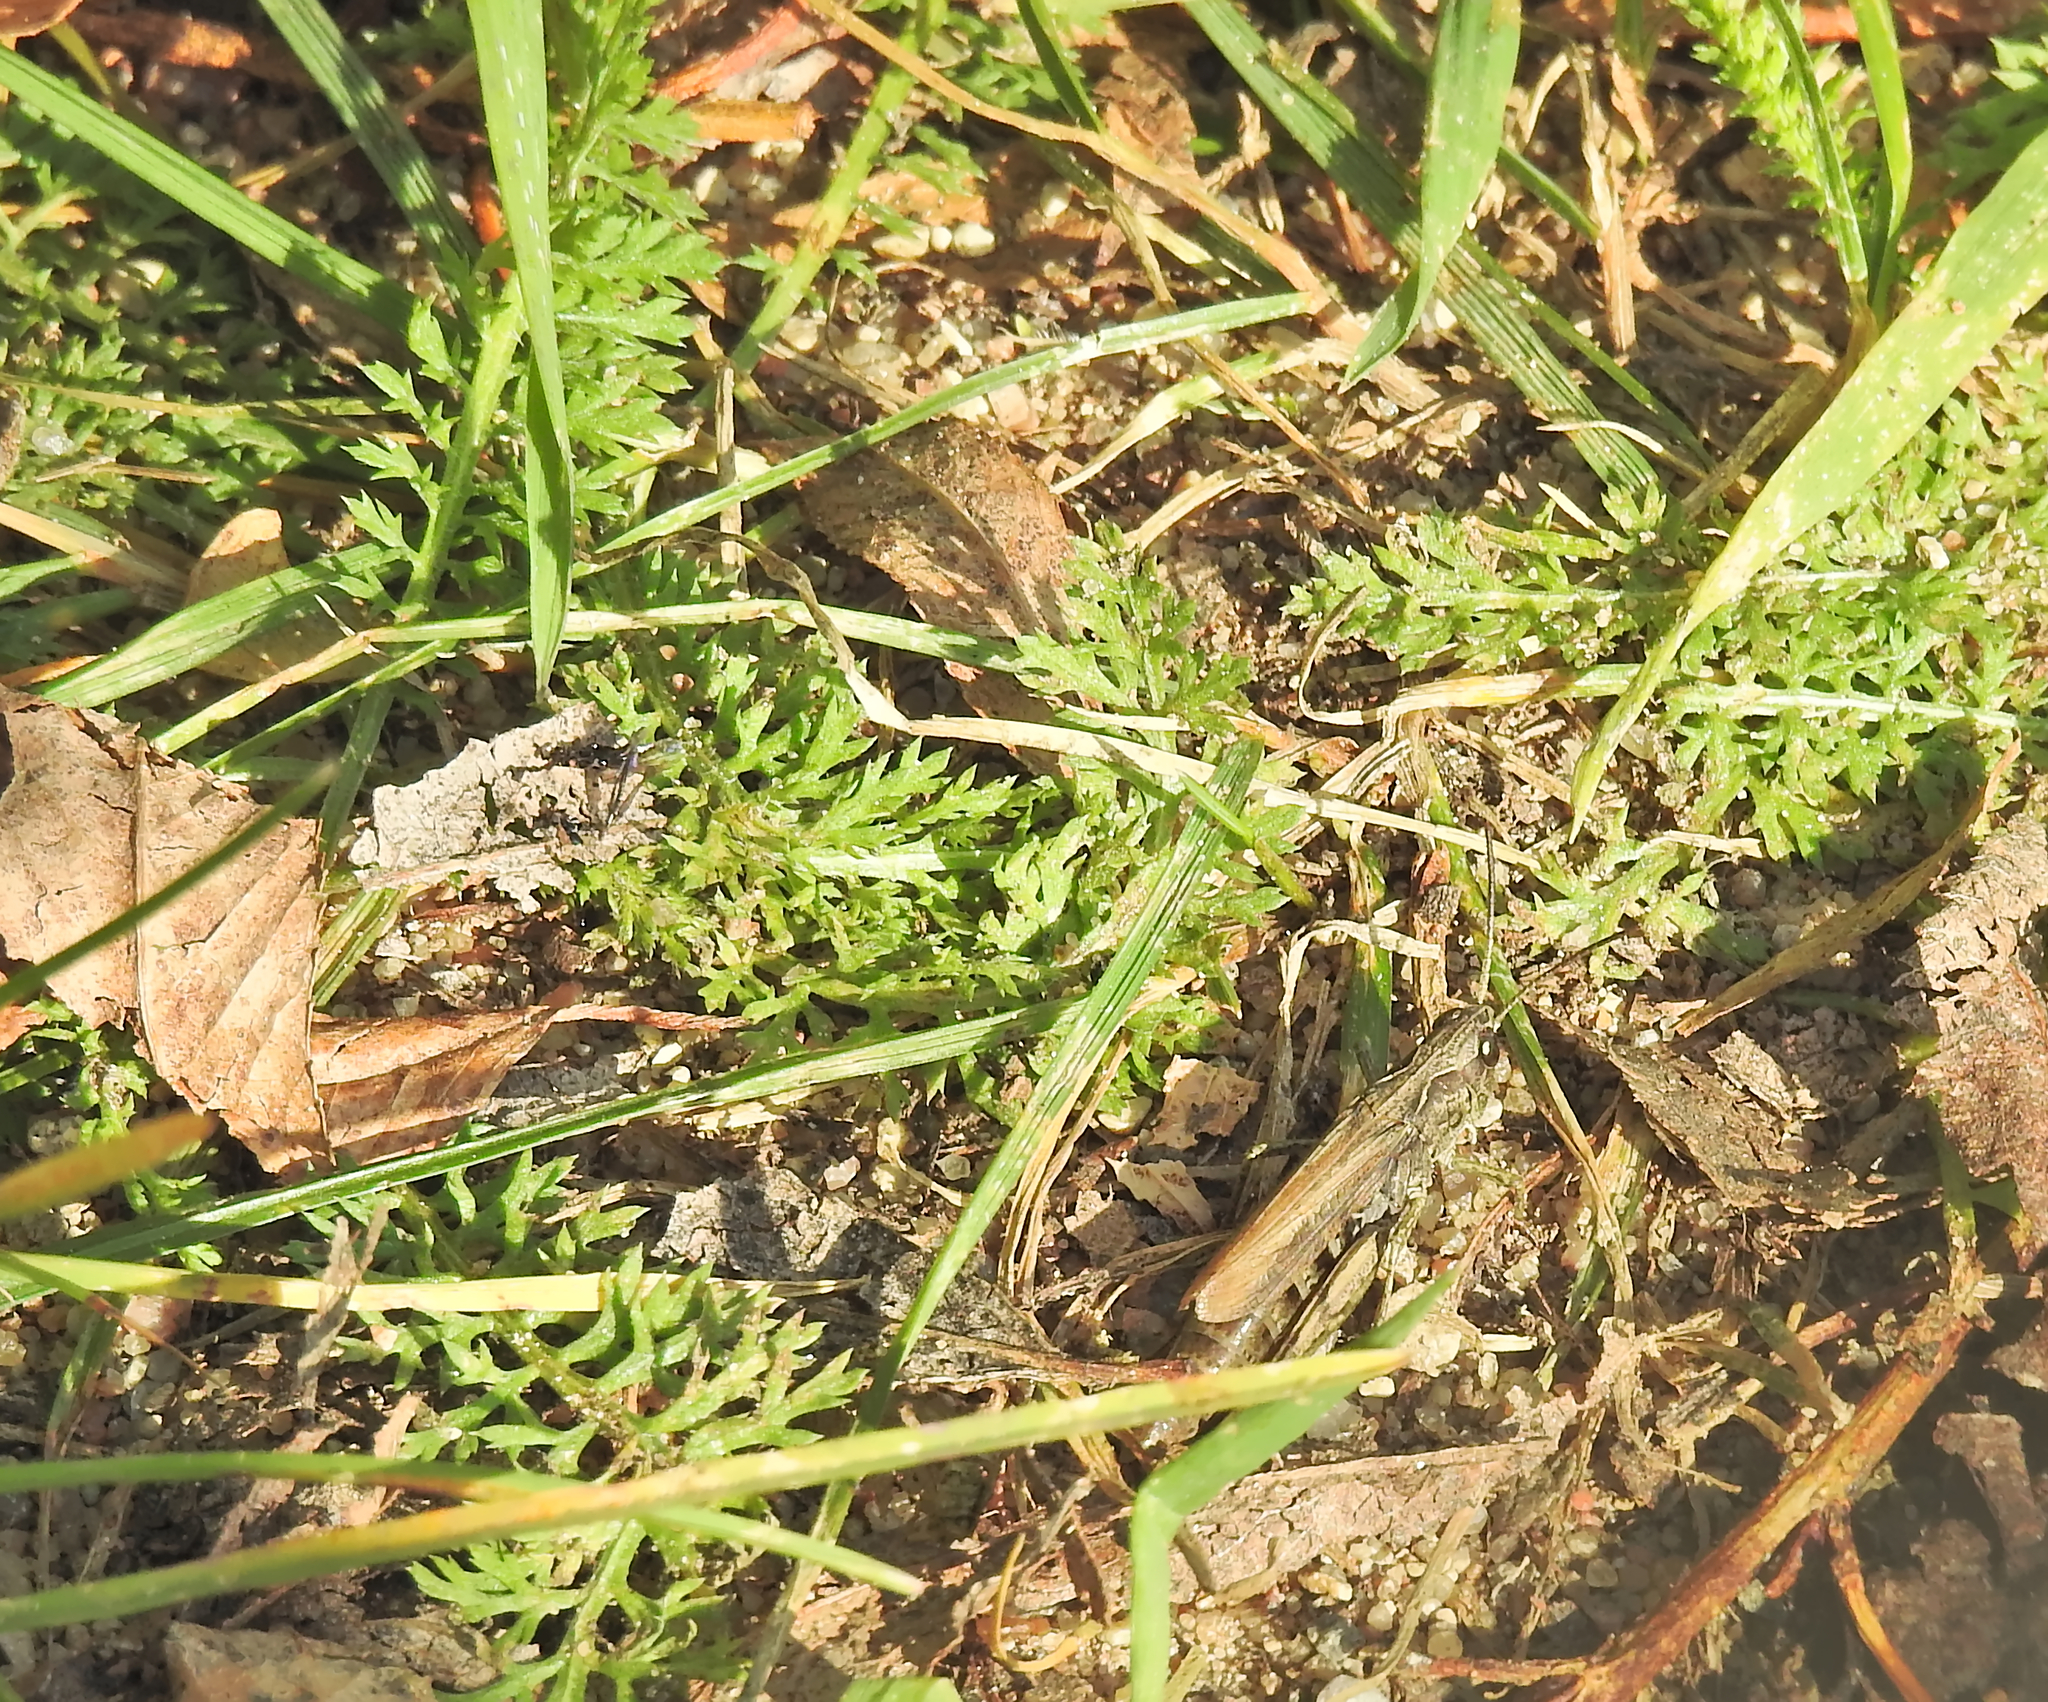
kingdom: Animalia
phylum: Arthropoda
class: Insecta
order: Orthoptera
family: Acrididae
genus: Chorthippus
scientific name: Chorthippus apricarius
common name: Upland field grasshopper
